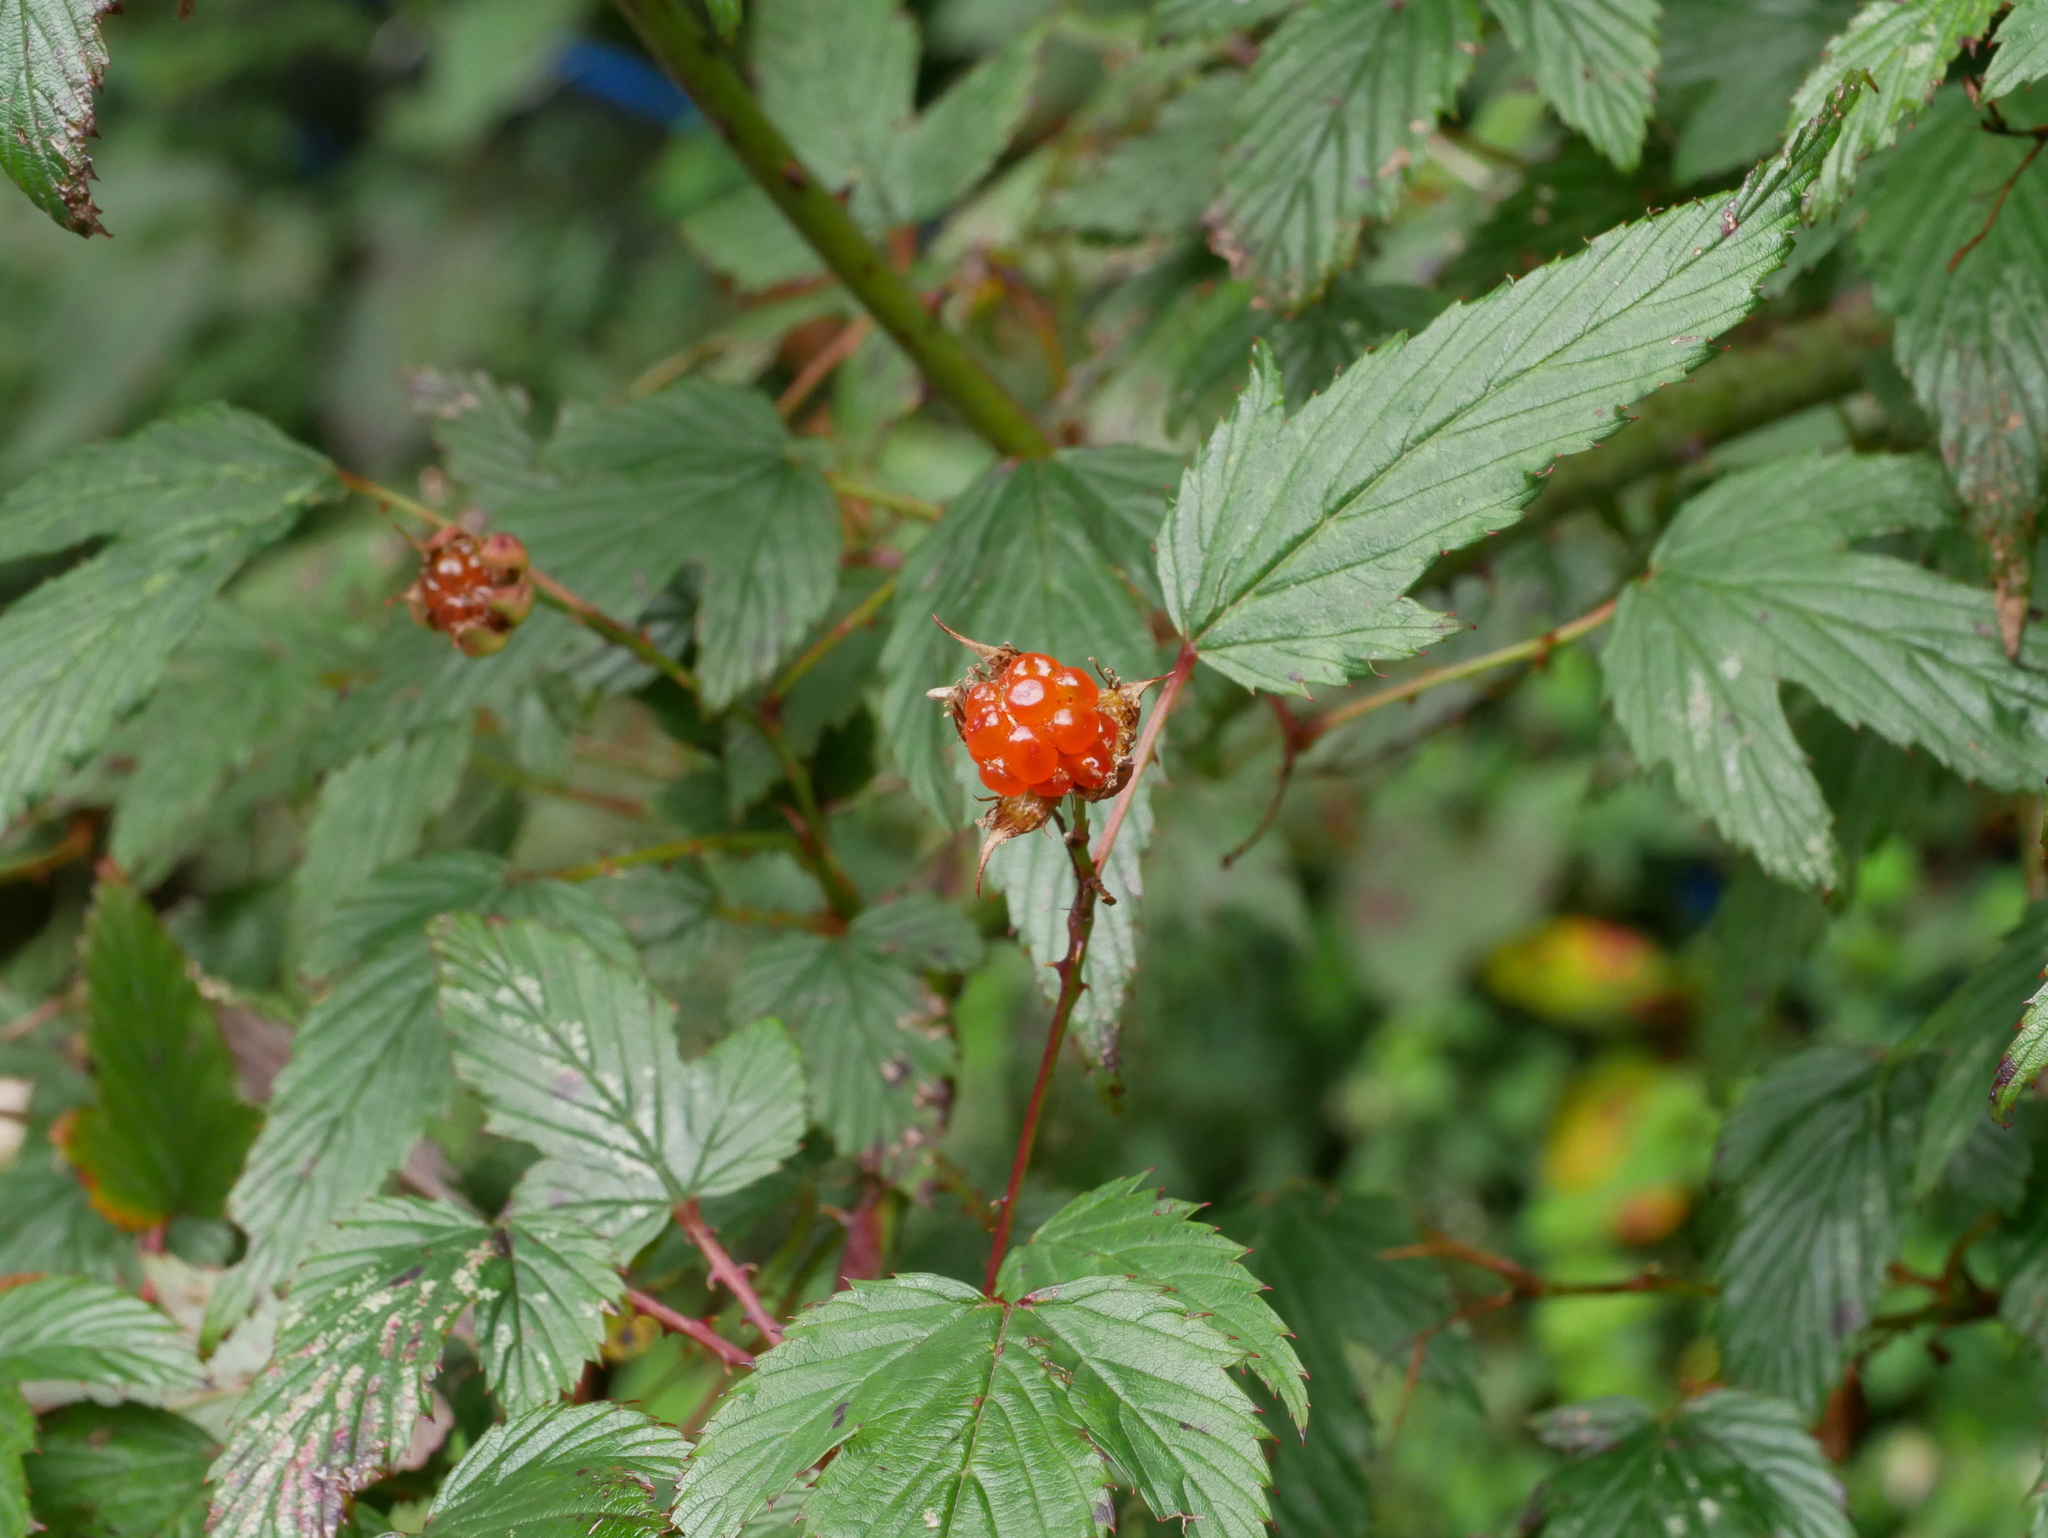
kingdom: Plantae
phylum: Tracheophyta
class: Magnoliopsida
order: Rosales
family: Rosaceae
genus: Rubus
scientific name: Rubus subcrataegifolius
